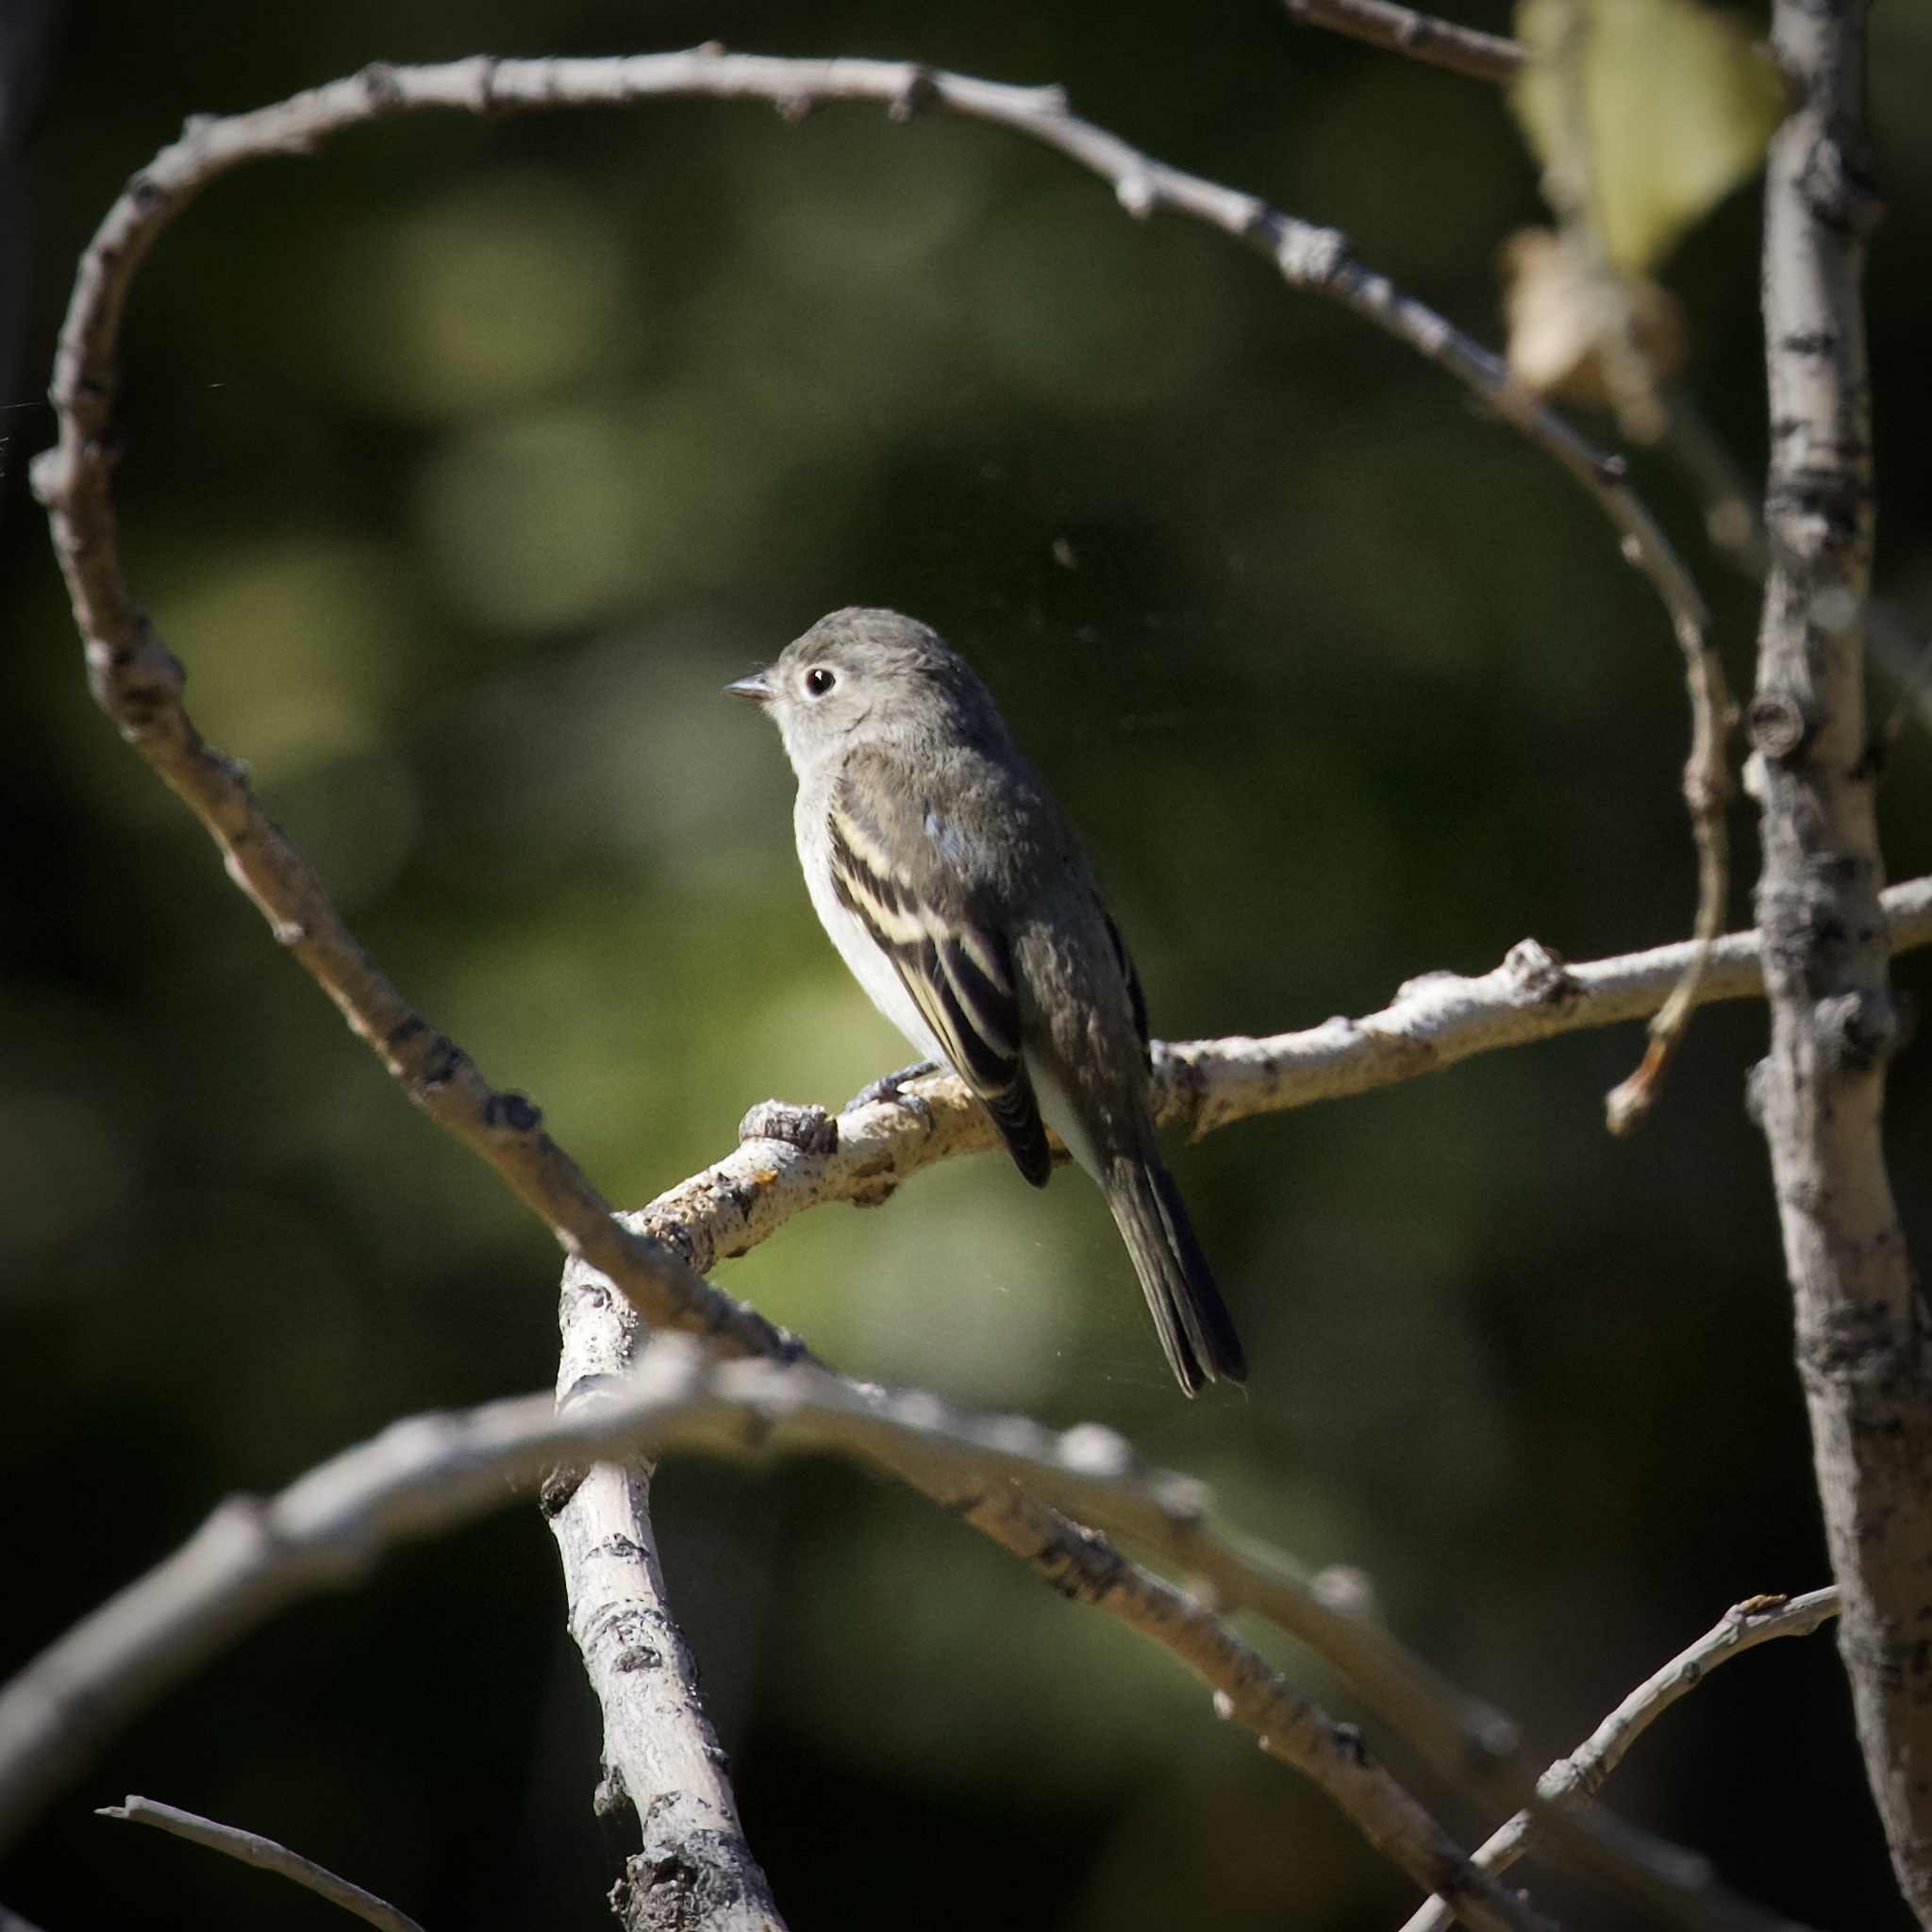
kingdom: Animalia
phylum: Chordata
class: Aves
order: Passeriformes
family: Tyrannidae
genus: Empidonax
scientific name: Empidonax minimus
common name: Least flycatcher
